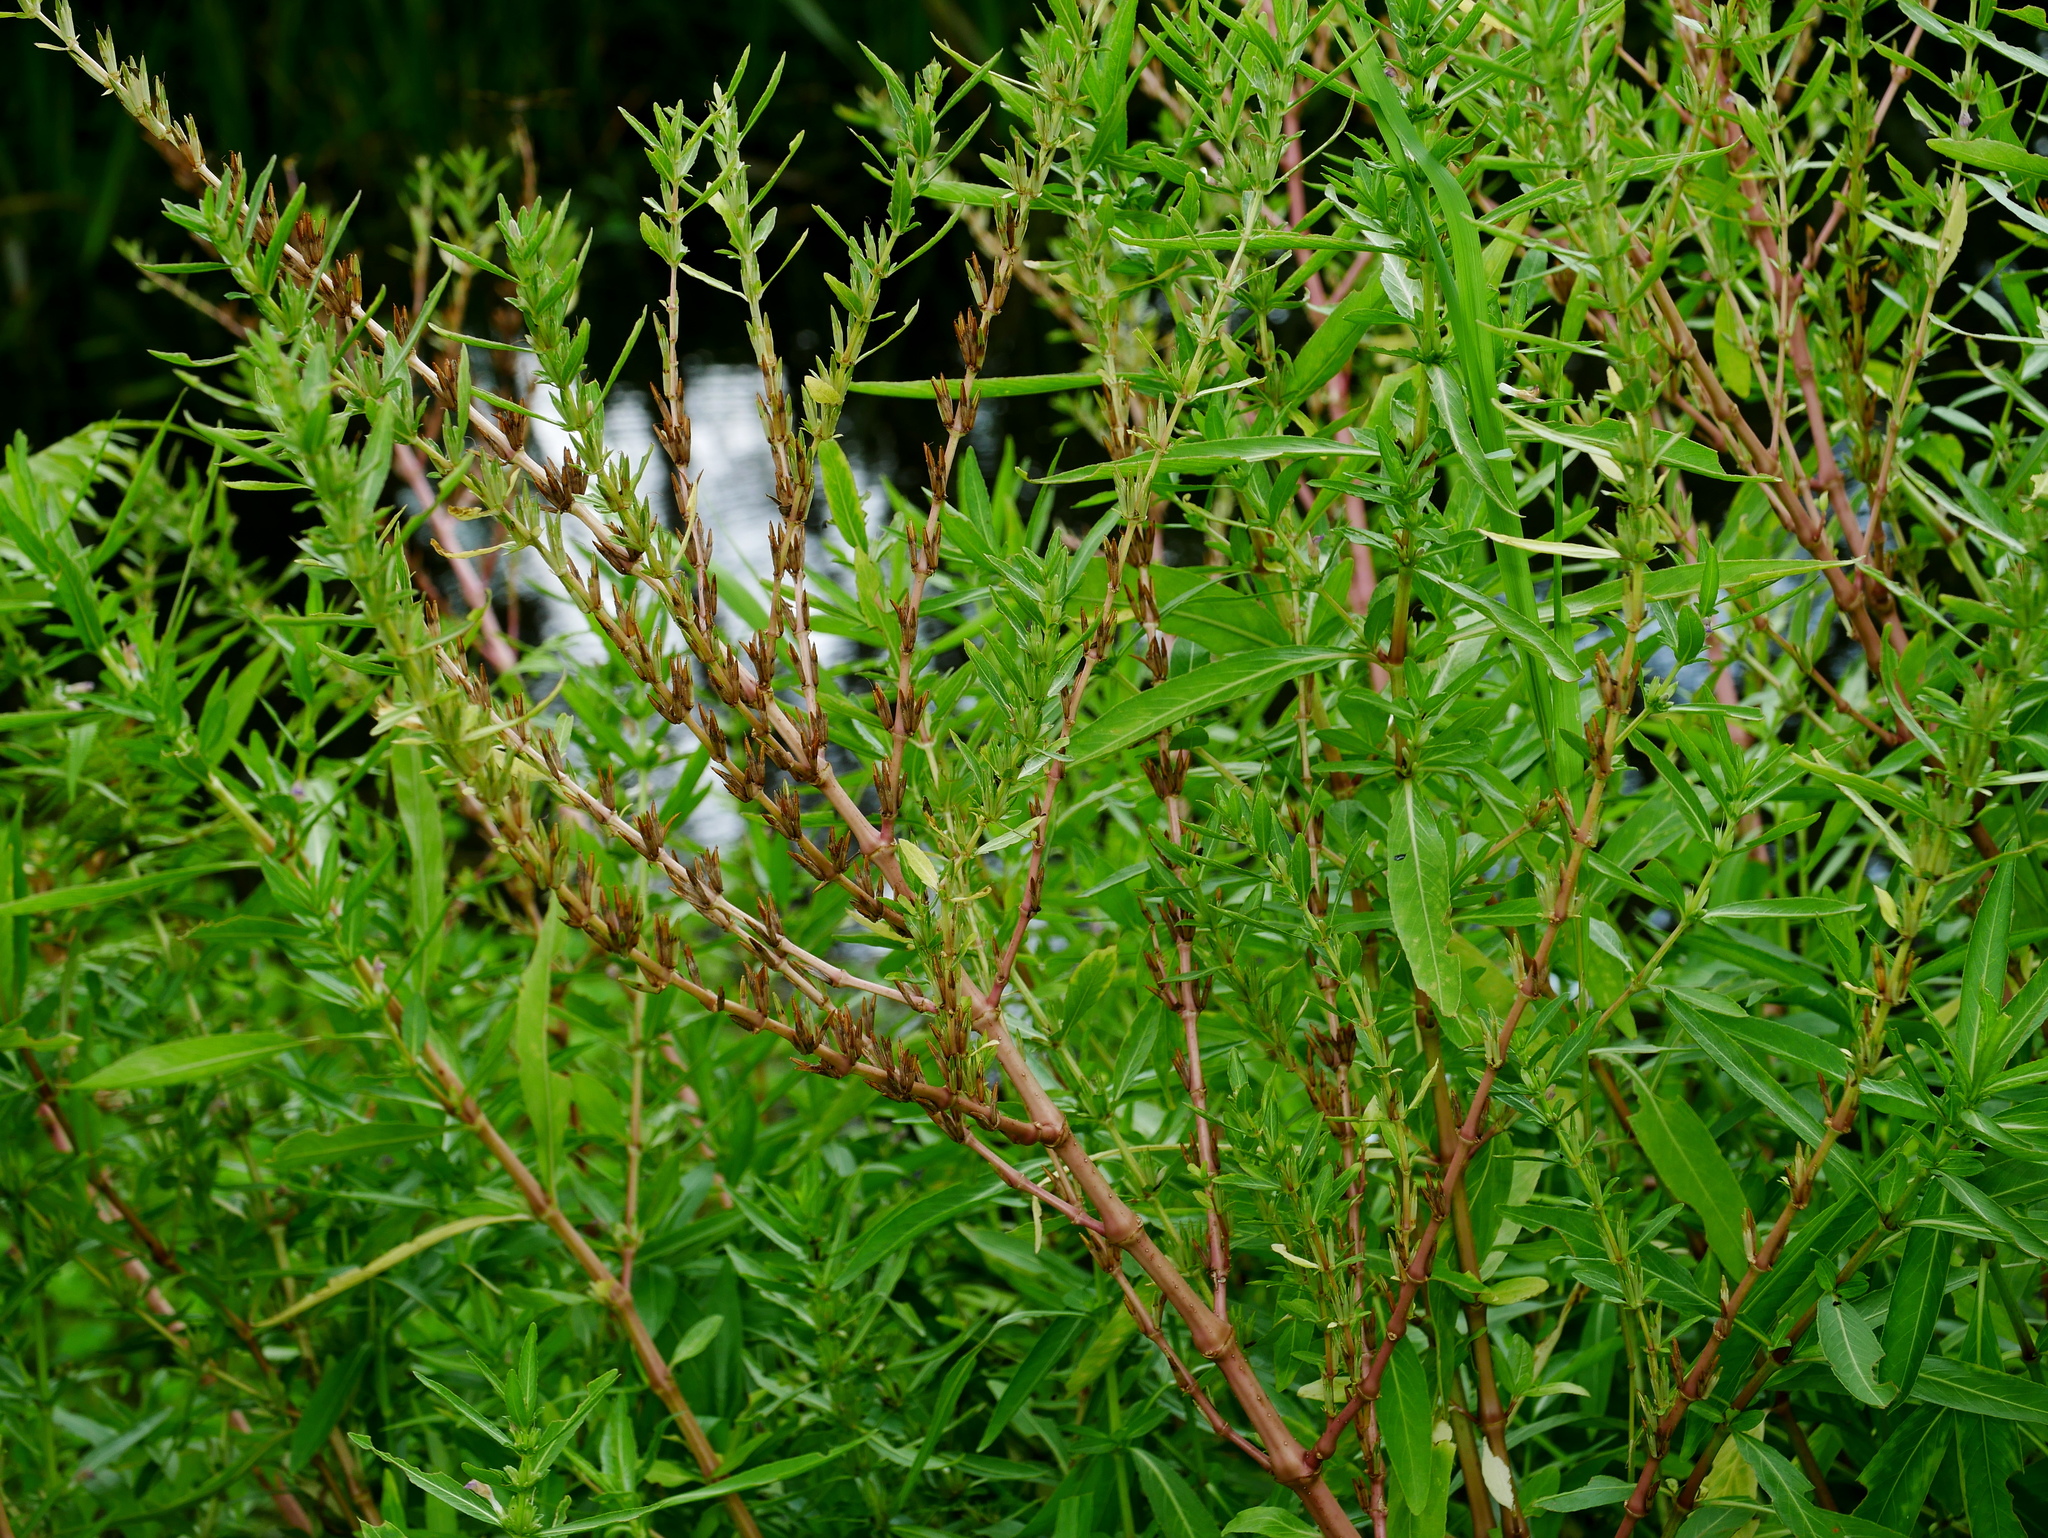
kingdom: Plantae
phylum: Tracheophyta
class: Magnoliopsida
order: Lamiales
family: Acanthaceae
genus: Hygrophila
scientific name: Hygrophila ringens
